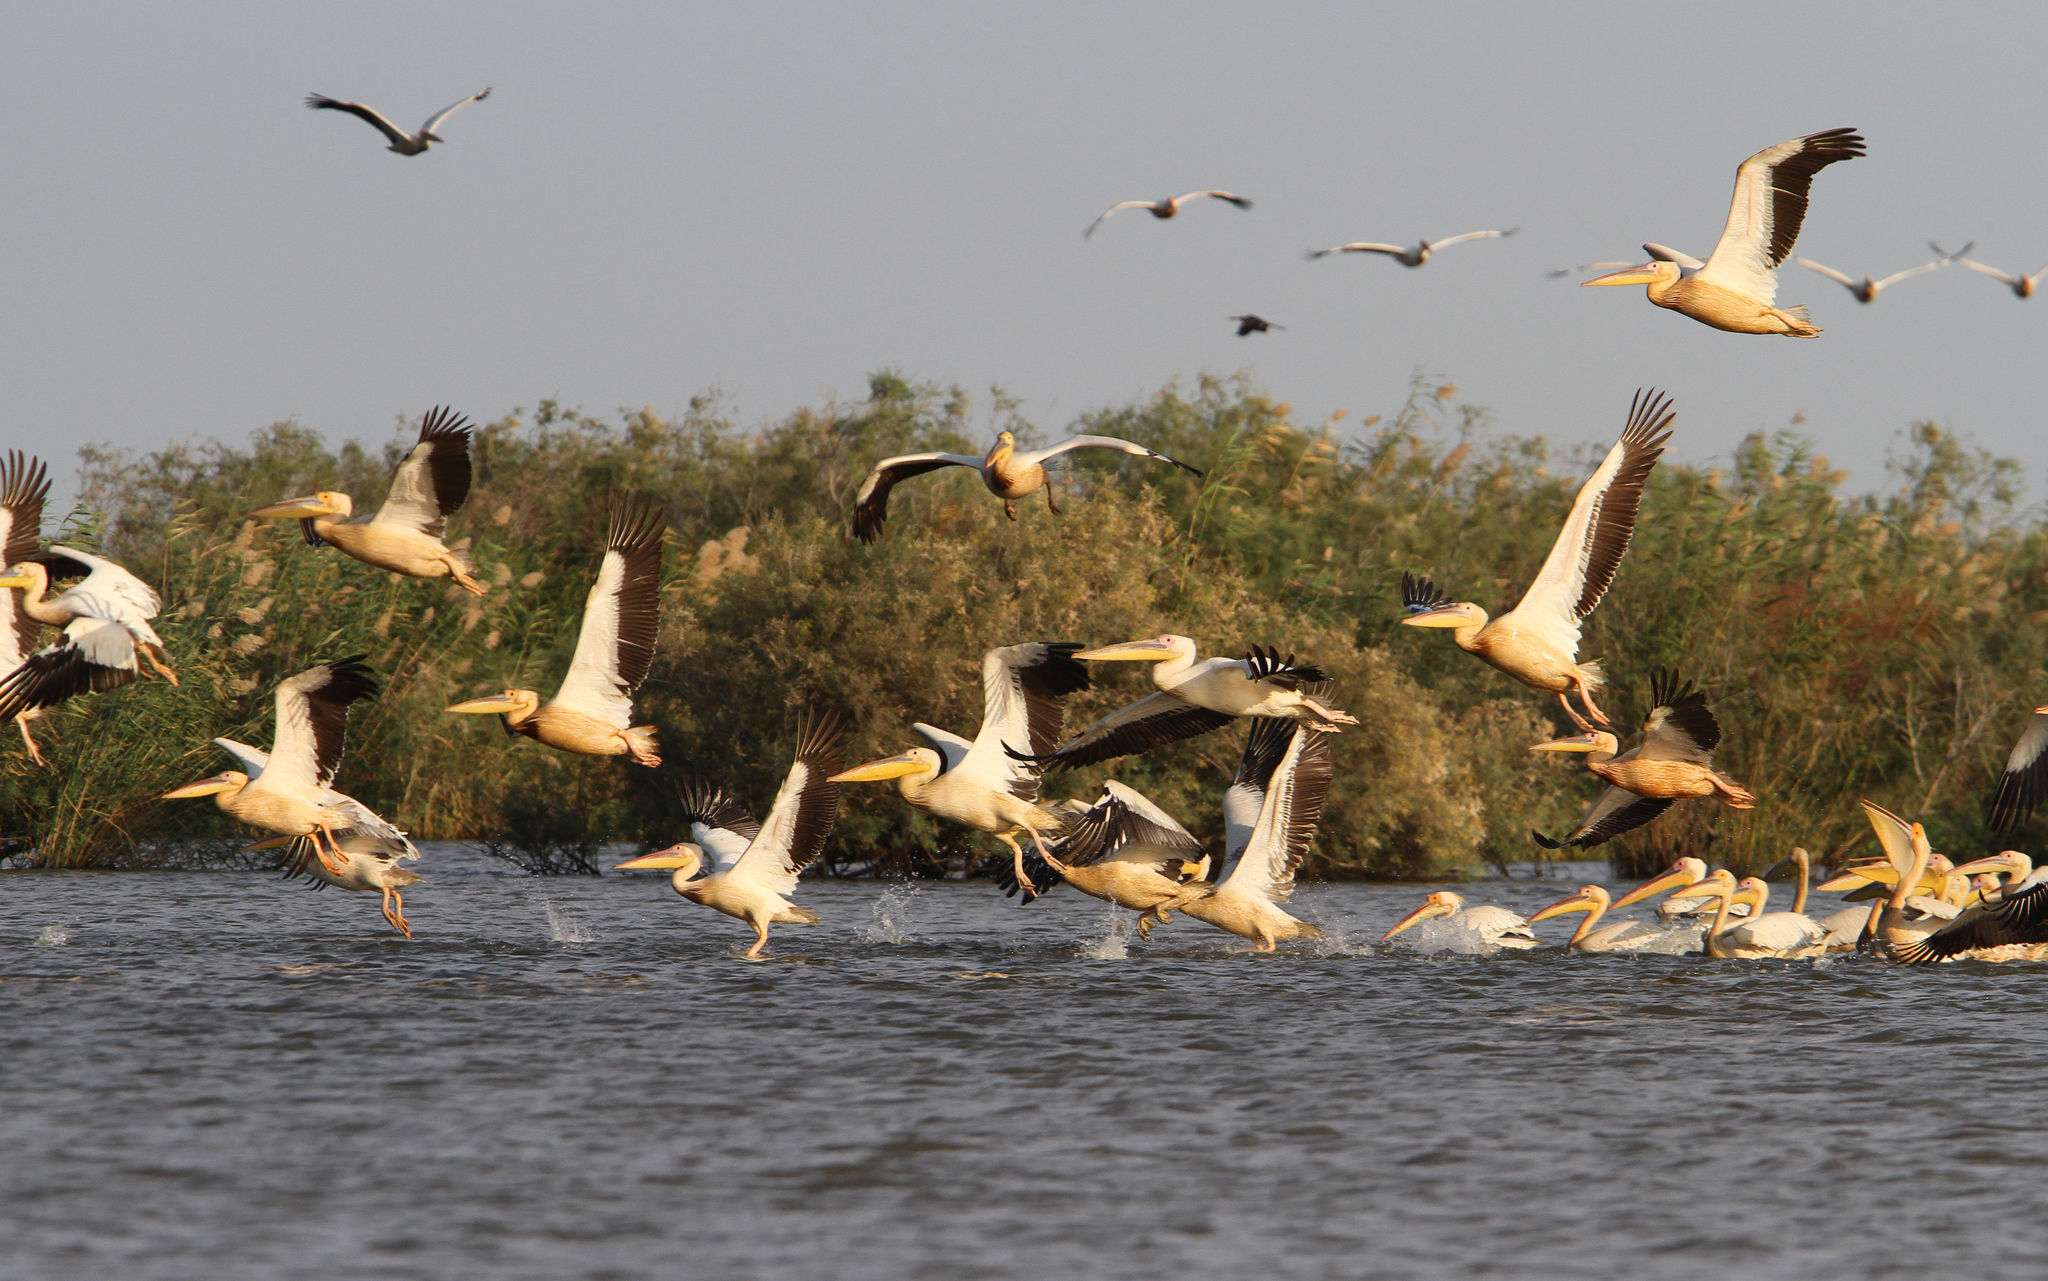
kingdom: Animalia
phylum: Chordata
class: Aves
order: Pelecaniformes
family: Pelecanidae
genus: Pelecanus
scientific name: Pelecanus onocrotalus
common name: Great white pelican
